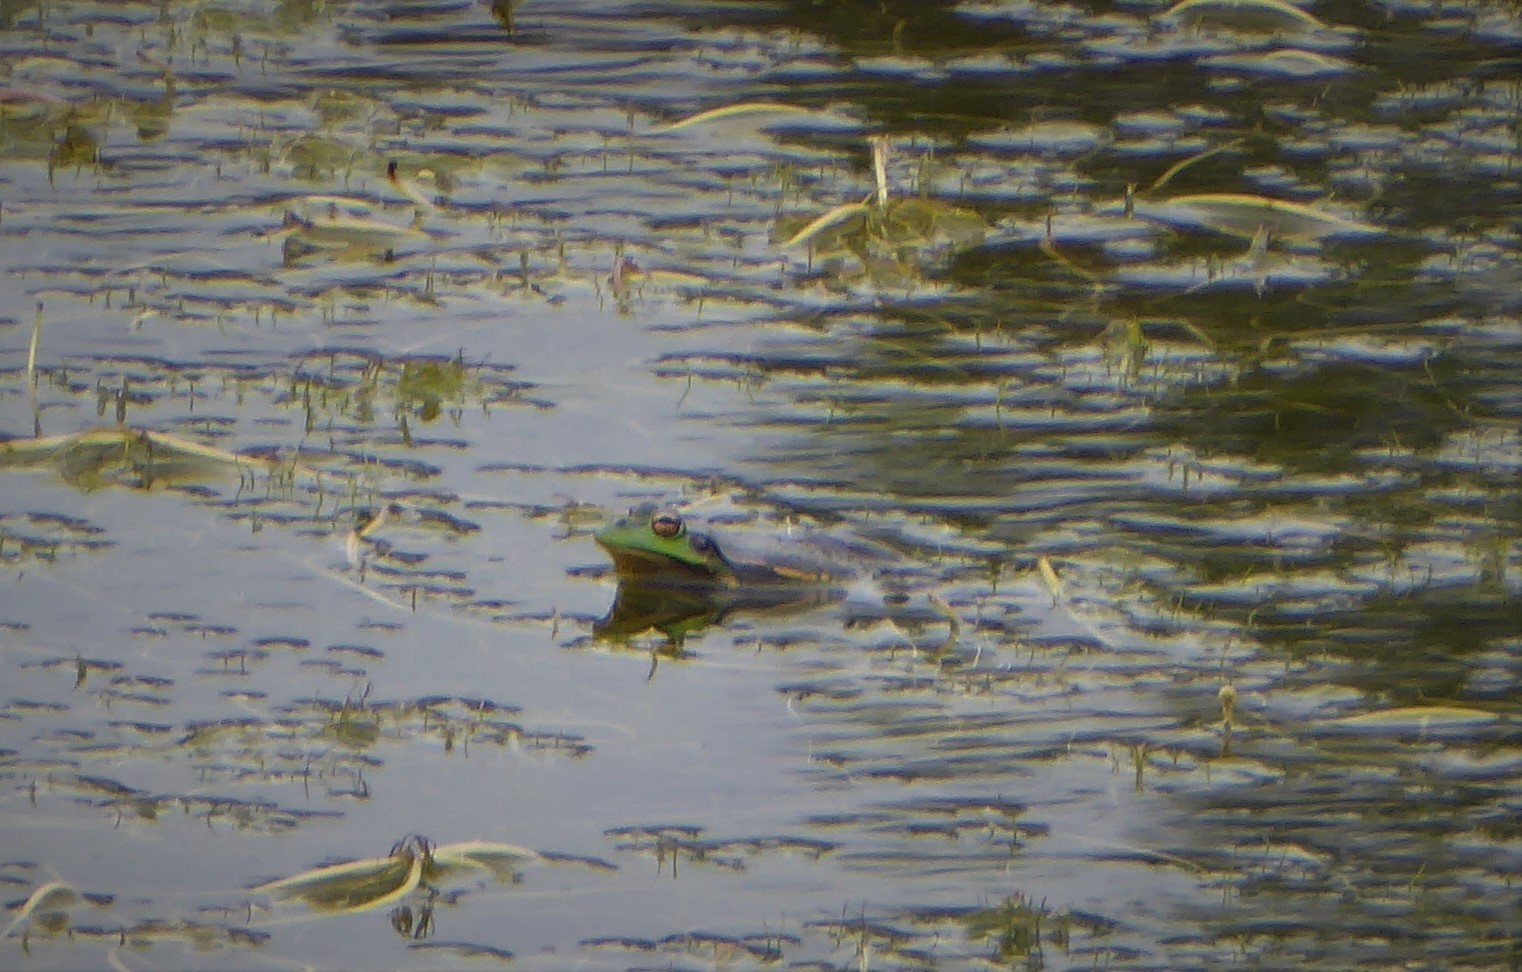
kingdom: Animalia
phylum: Chordata
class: Amphibia
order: Anura
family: Pelodryadidae
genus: Ranoidea
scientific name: Ranoidea raniformis
